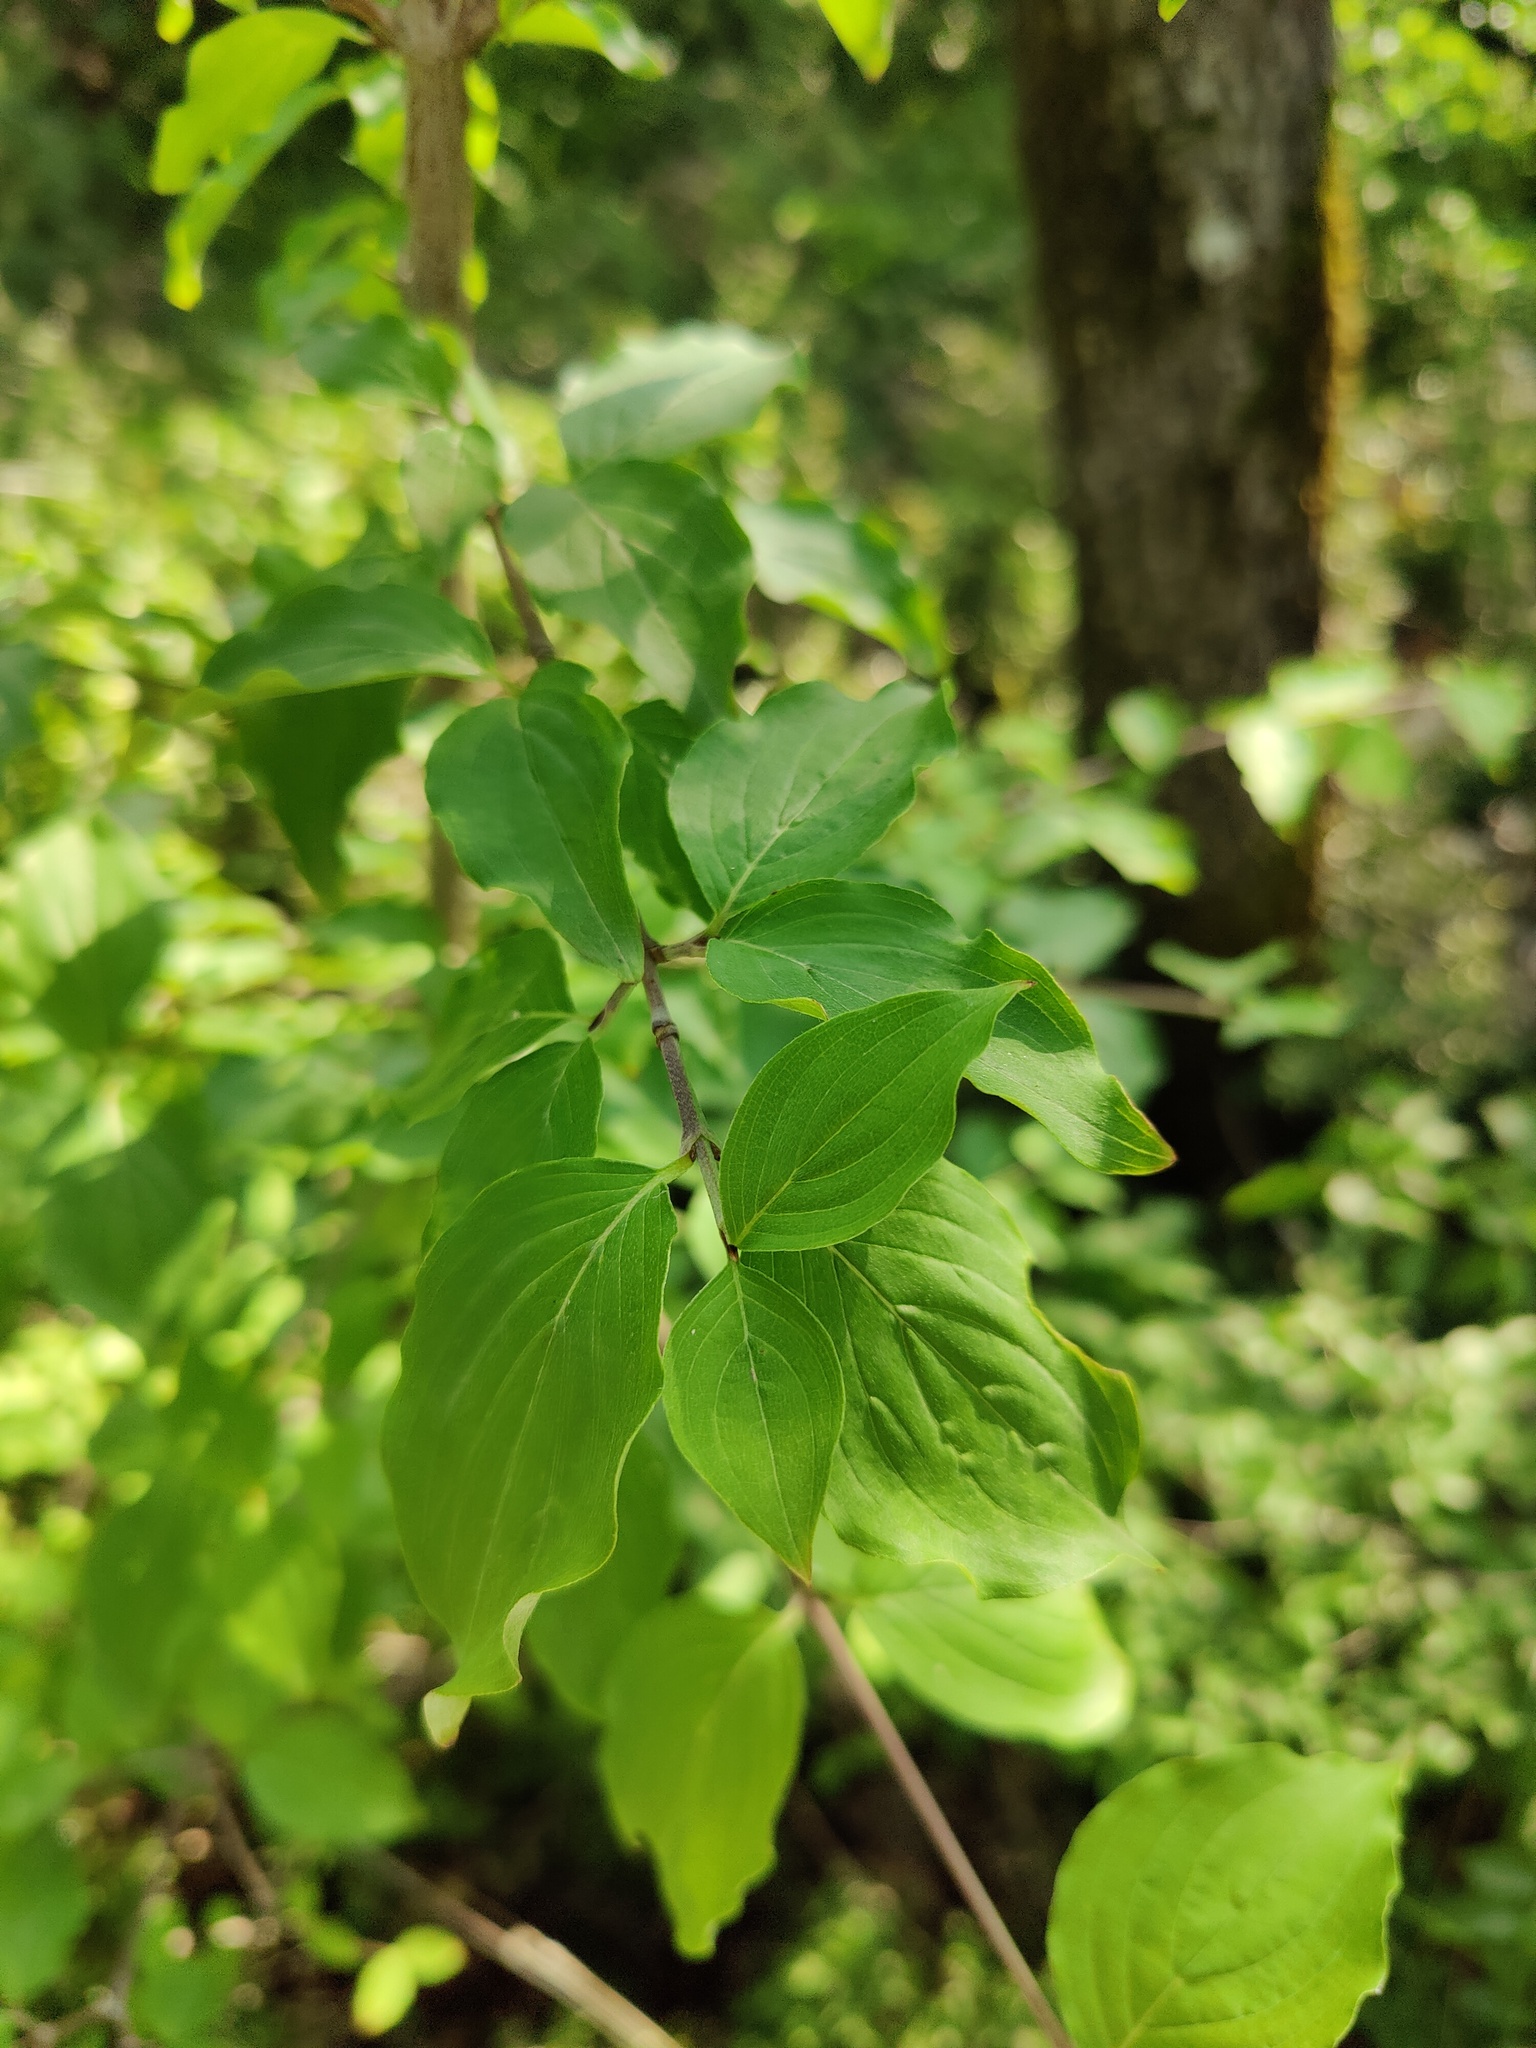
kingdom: Plantae
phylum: Tracheophyta
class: Magnoliopsida
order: Cornales
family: Cornaceae
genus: Cornus
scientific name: Cornus sanguinea
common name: Dogwood
